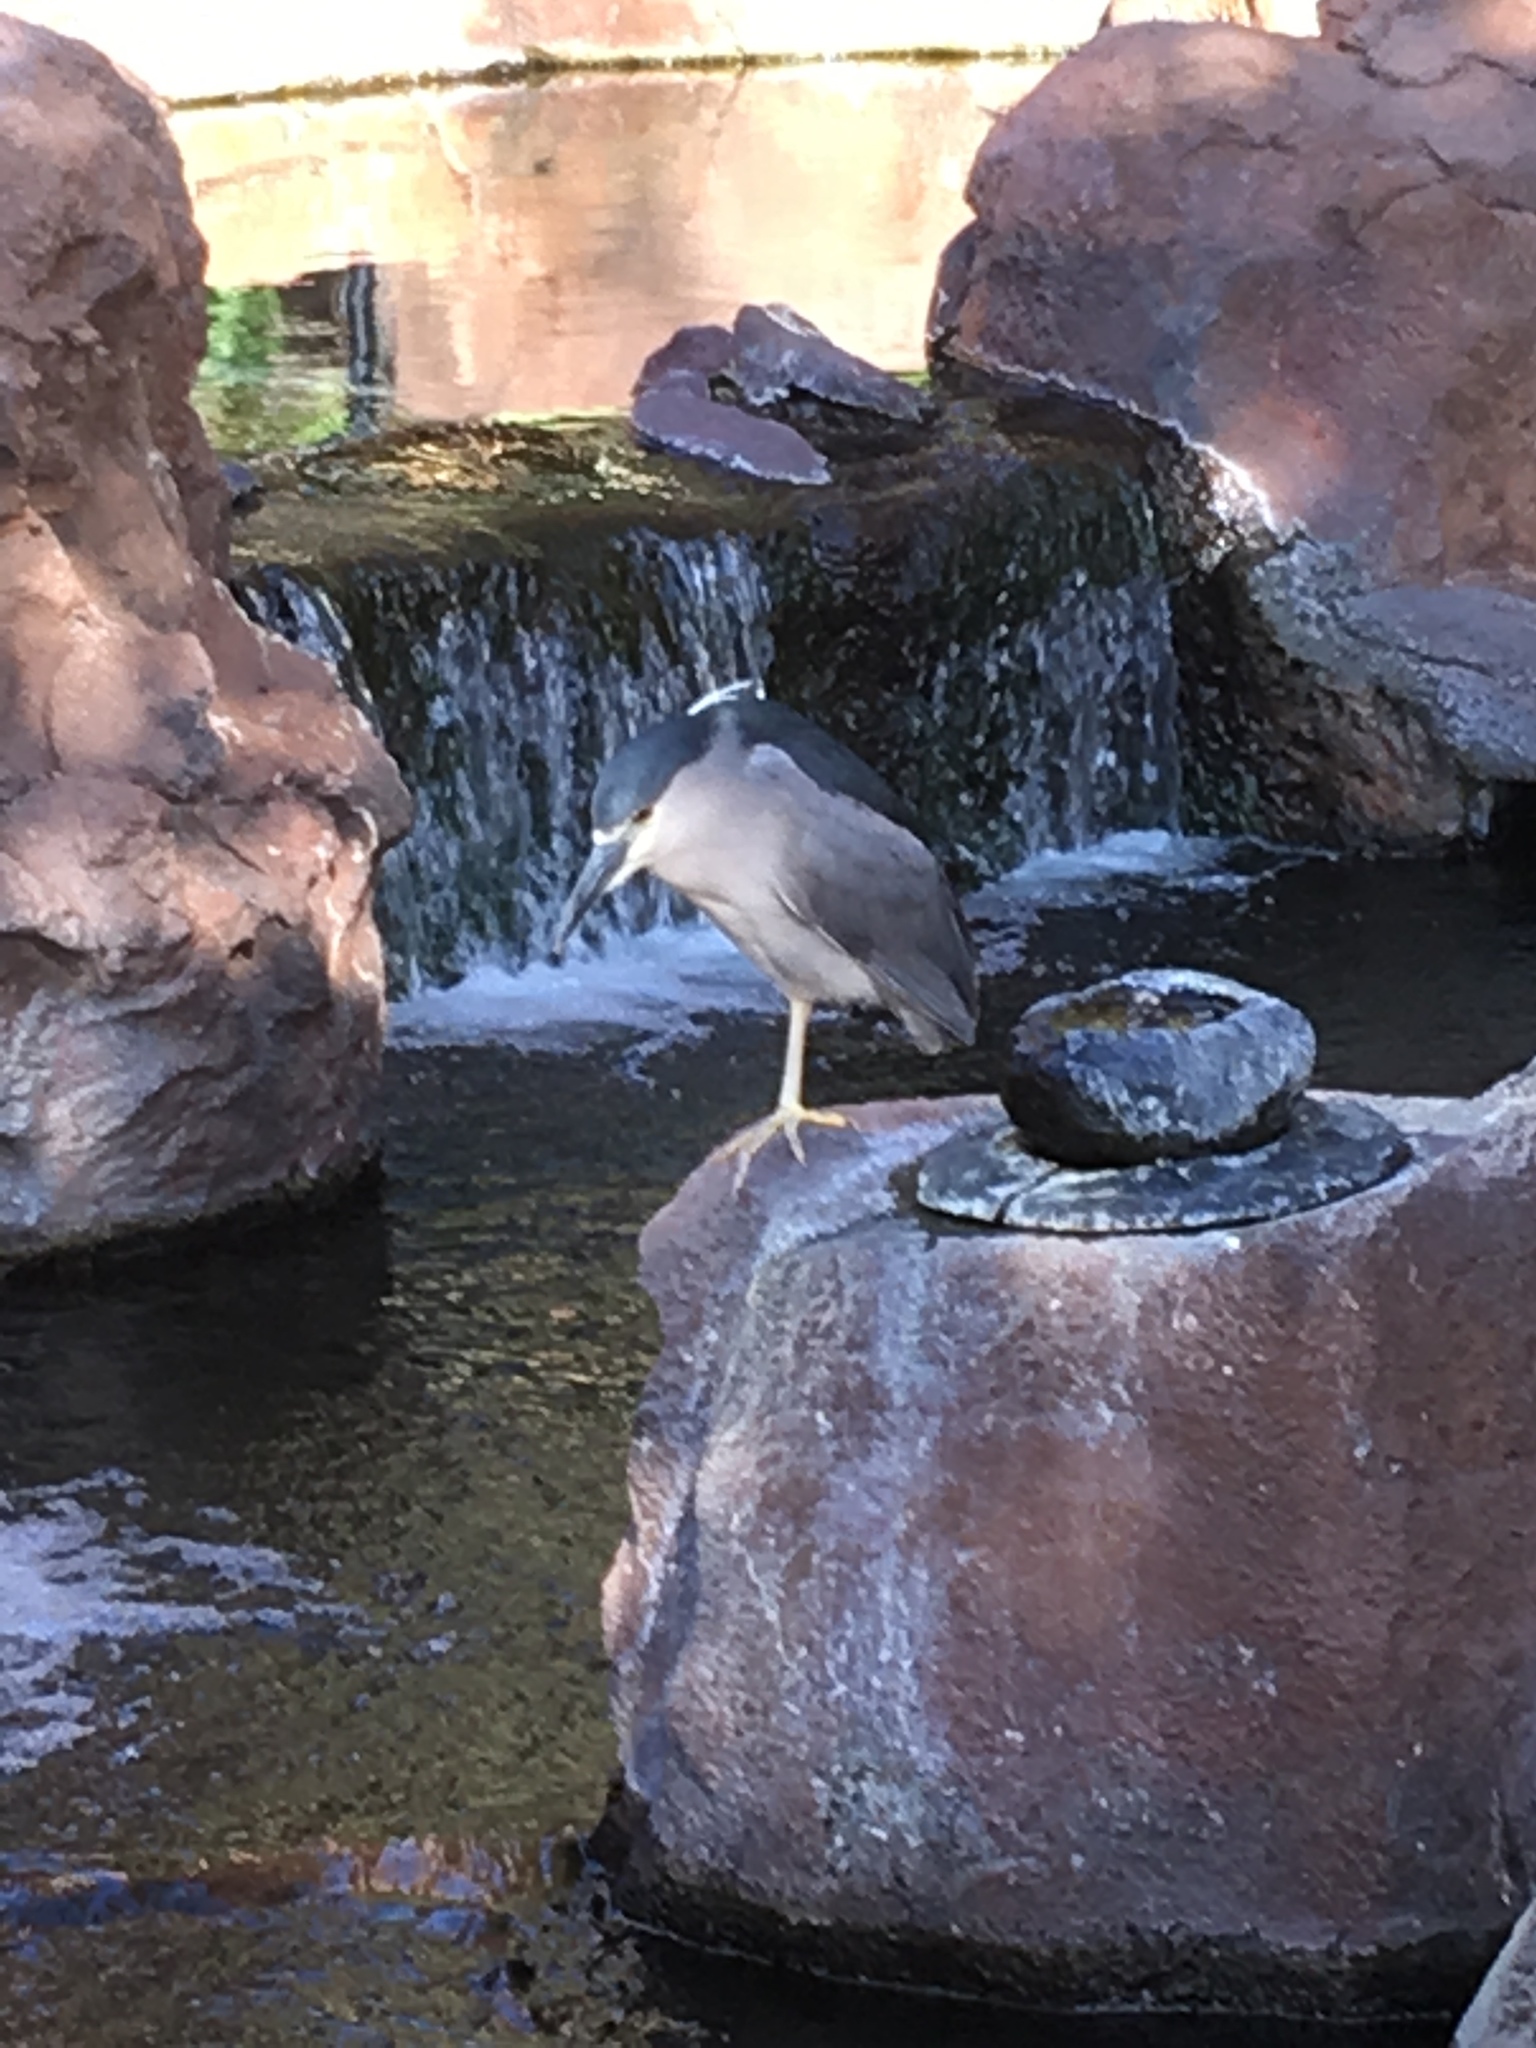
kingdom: Animalia
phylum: Chordata
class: Aves
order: Pelecaniformes
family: Ardeidae
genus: Nycticorax
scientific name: Nycticorax nycticorax
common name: Black-crowned night heron
